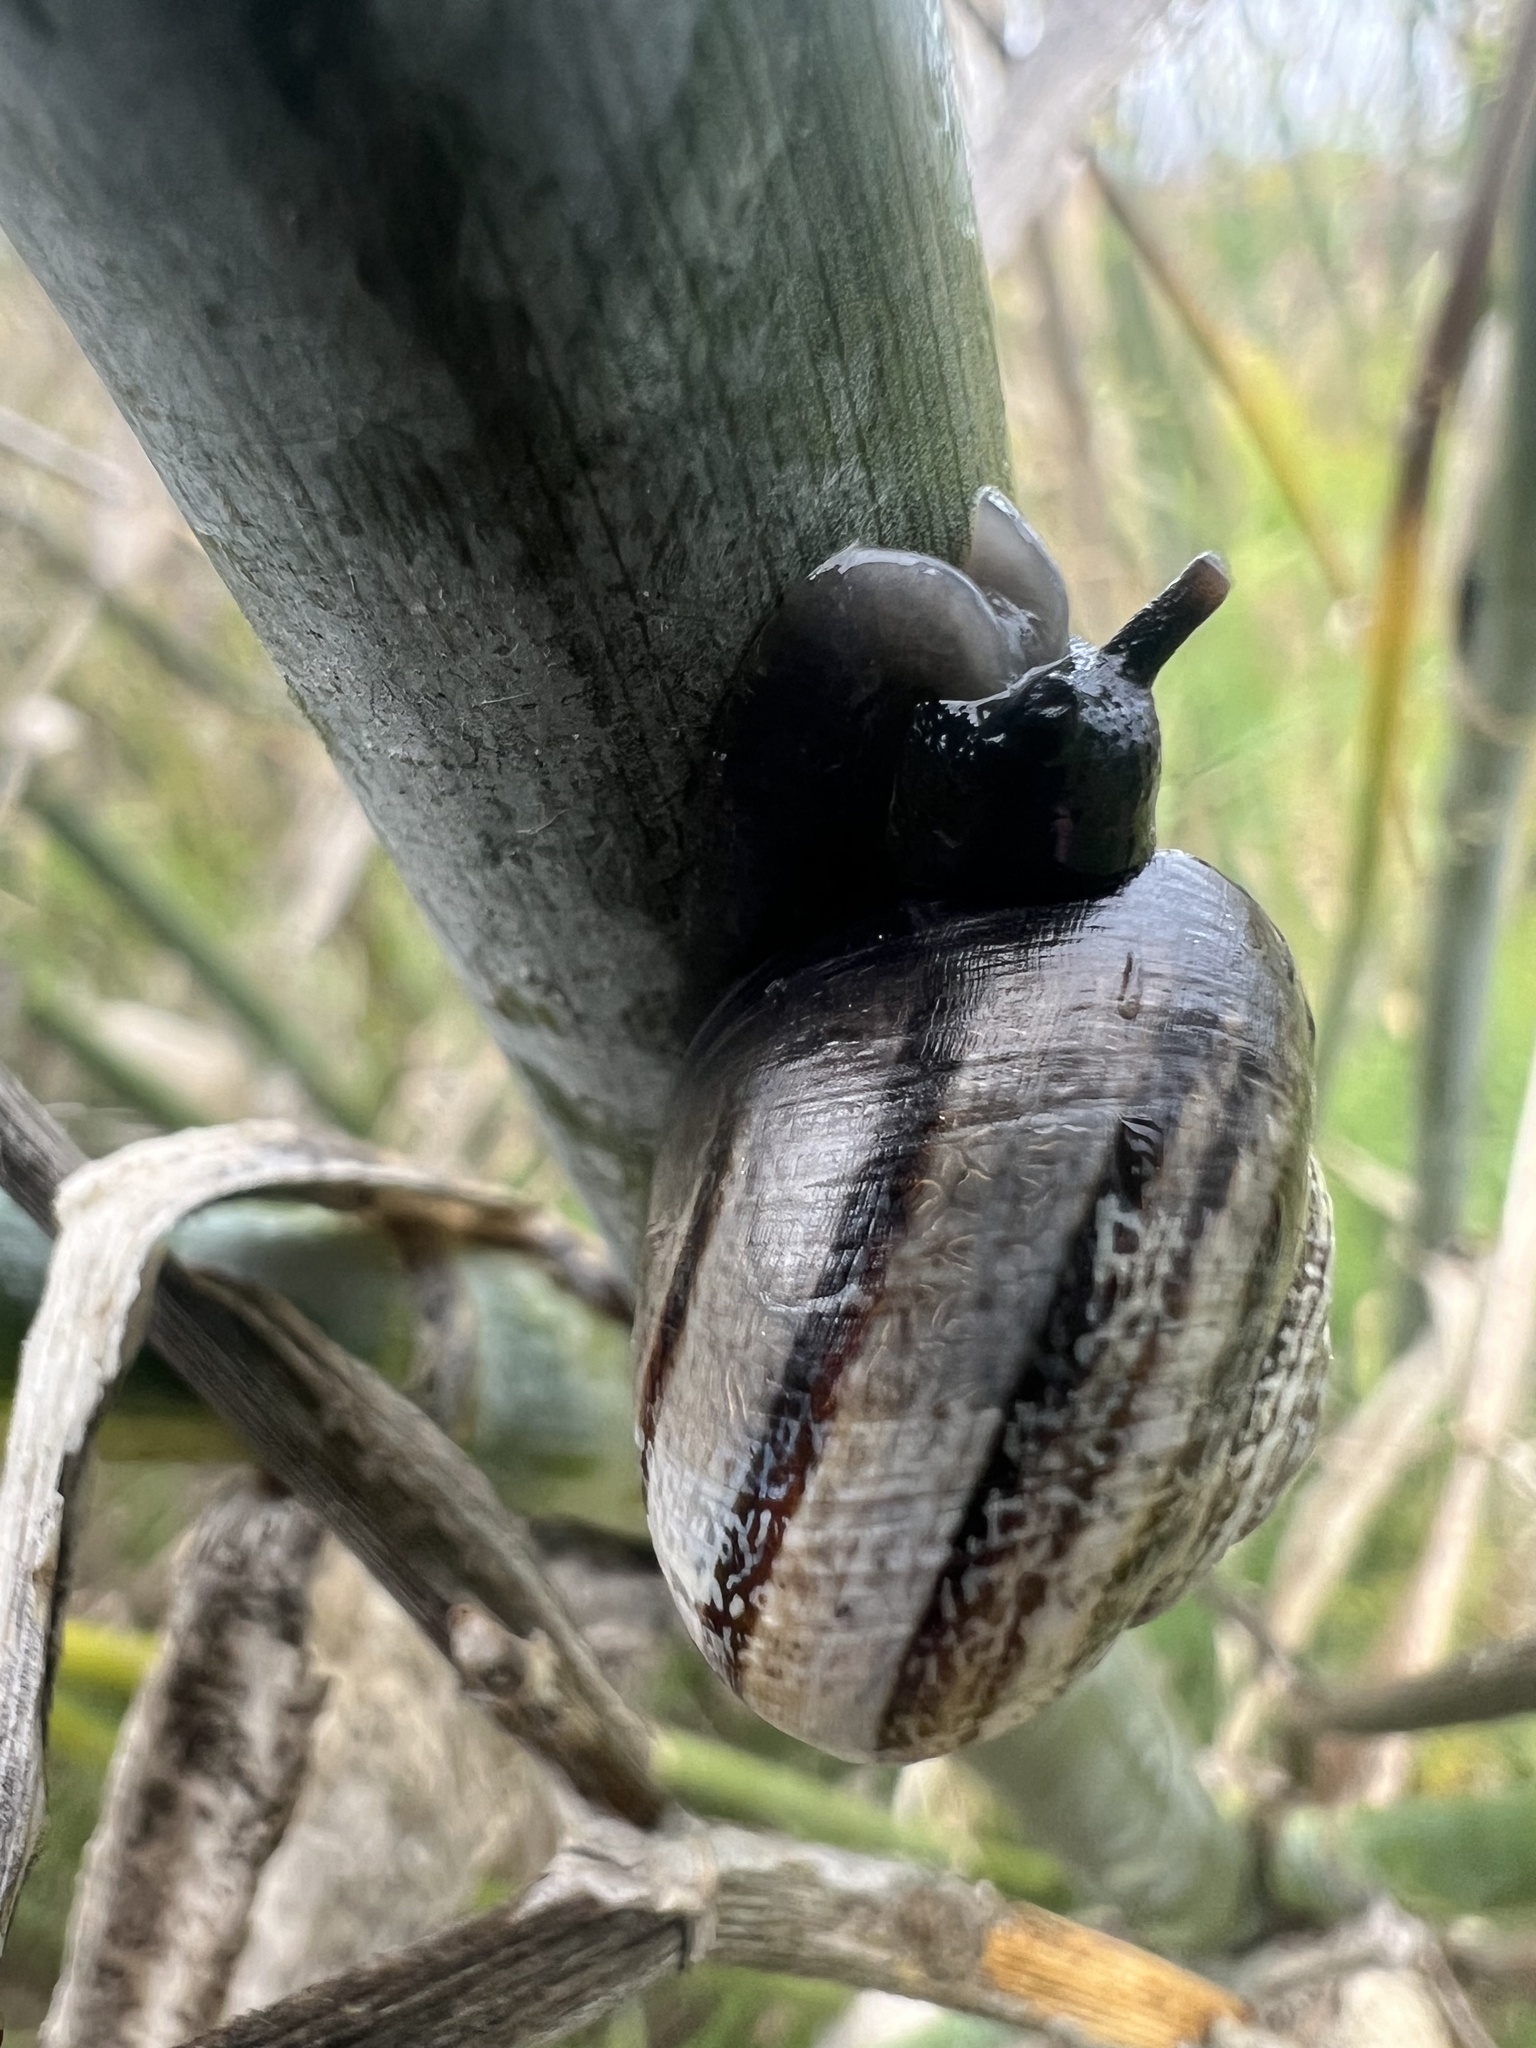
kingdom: Animalia
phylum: Mollusca
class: Gastropoda
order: Stylommatophora
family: Helicidae
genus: Otala
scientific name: Otala lactea
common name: Milk snail
